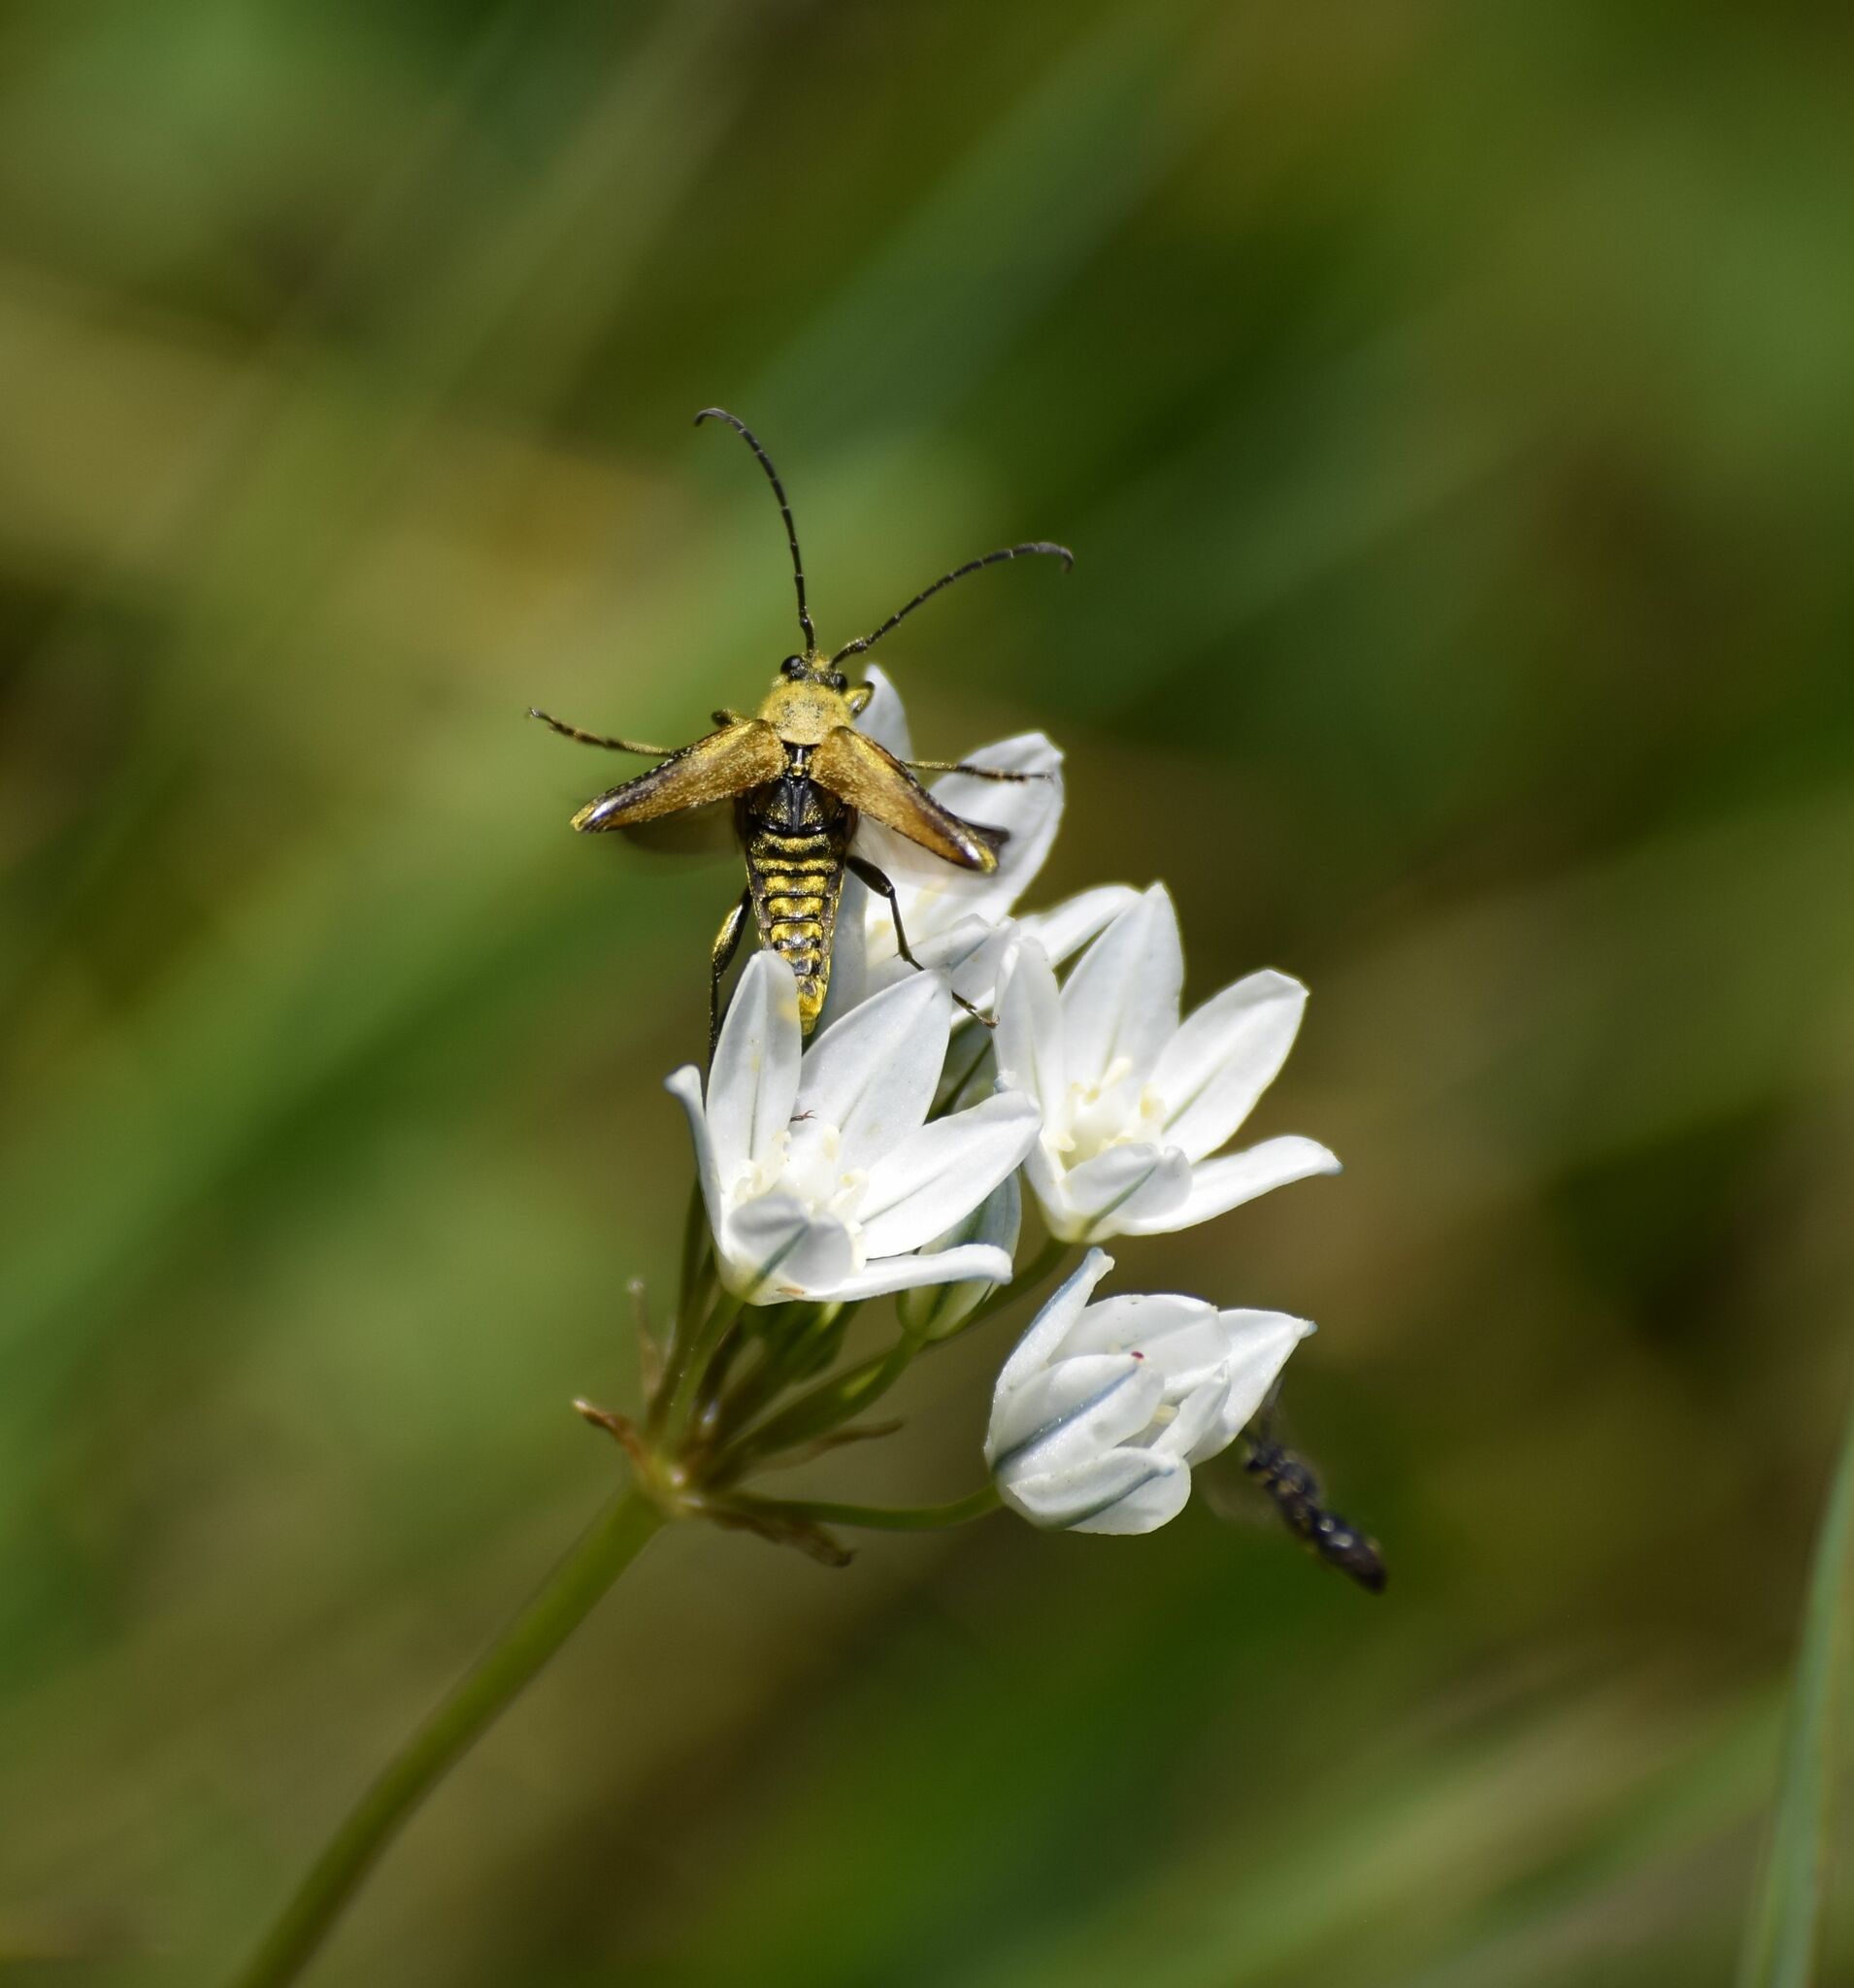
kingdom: Animalia
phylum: Arthropoda
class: Insecta
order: Coleoptera
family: Cerambycidae
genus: Cosmosalia
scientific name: Cosmosalia chrysocoma
